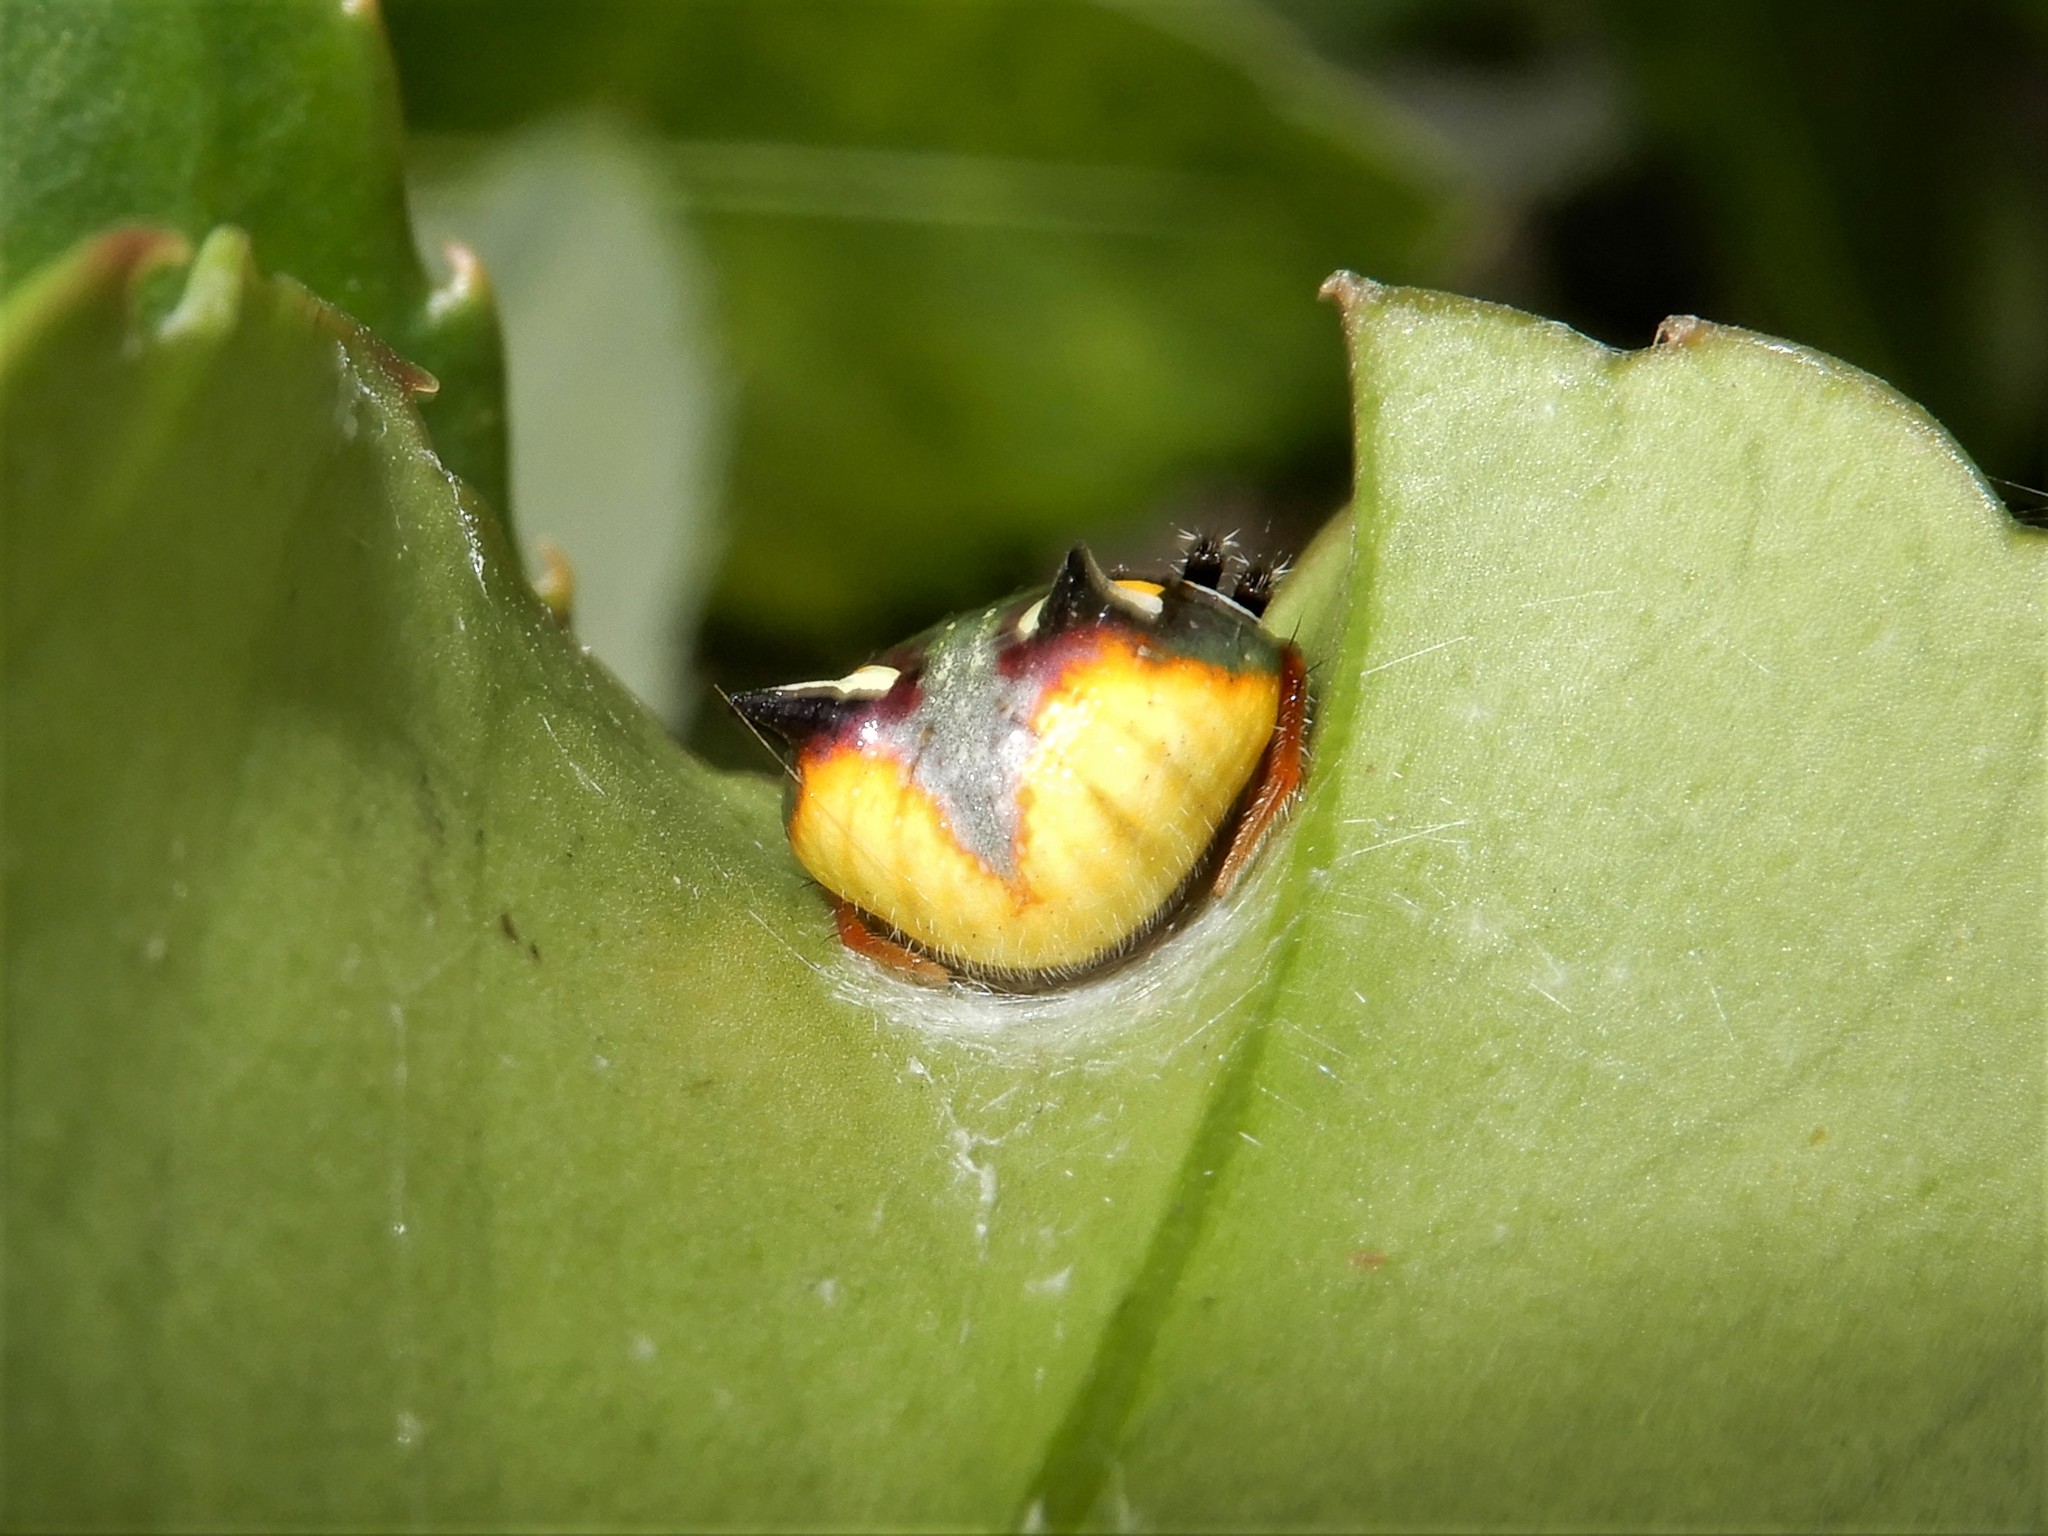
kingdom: Animalia
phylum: Arthropoda
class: Arachnida
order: Araneae
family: Araneidae
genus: Poecilopachys
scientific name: Poecilopachys australasia
